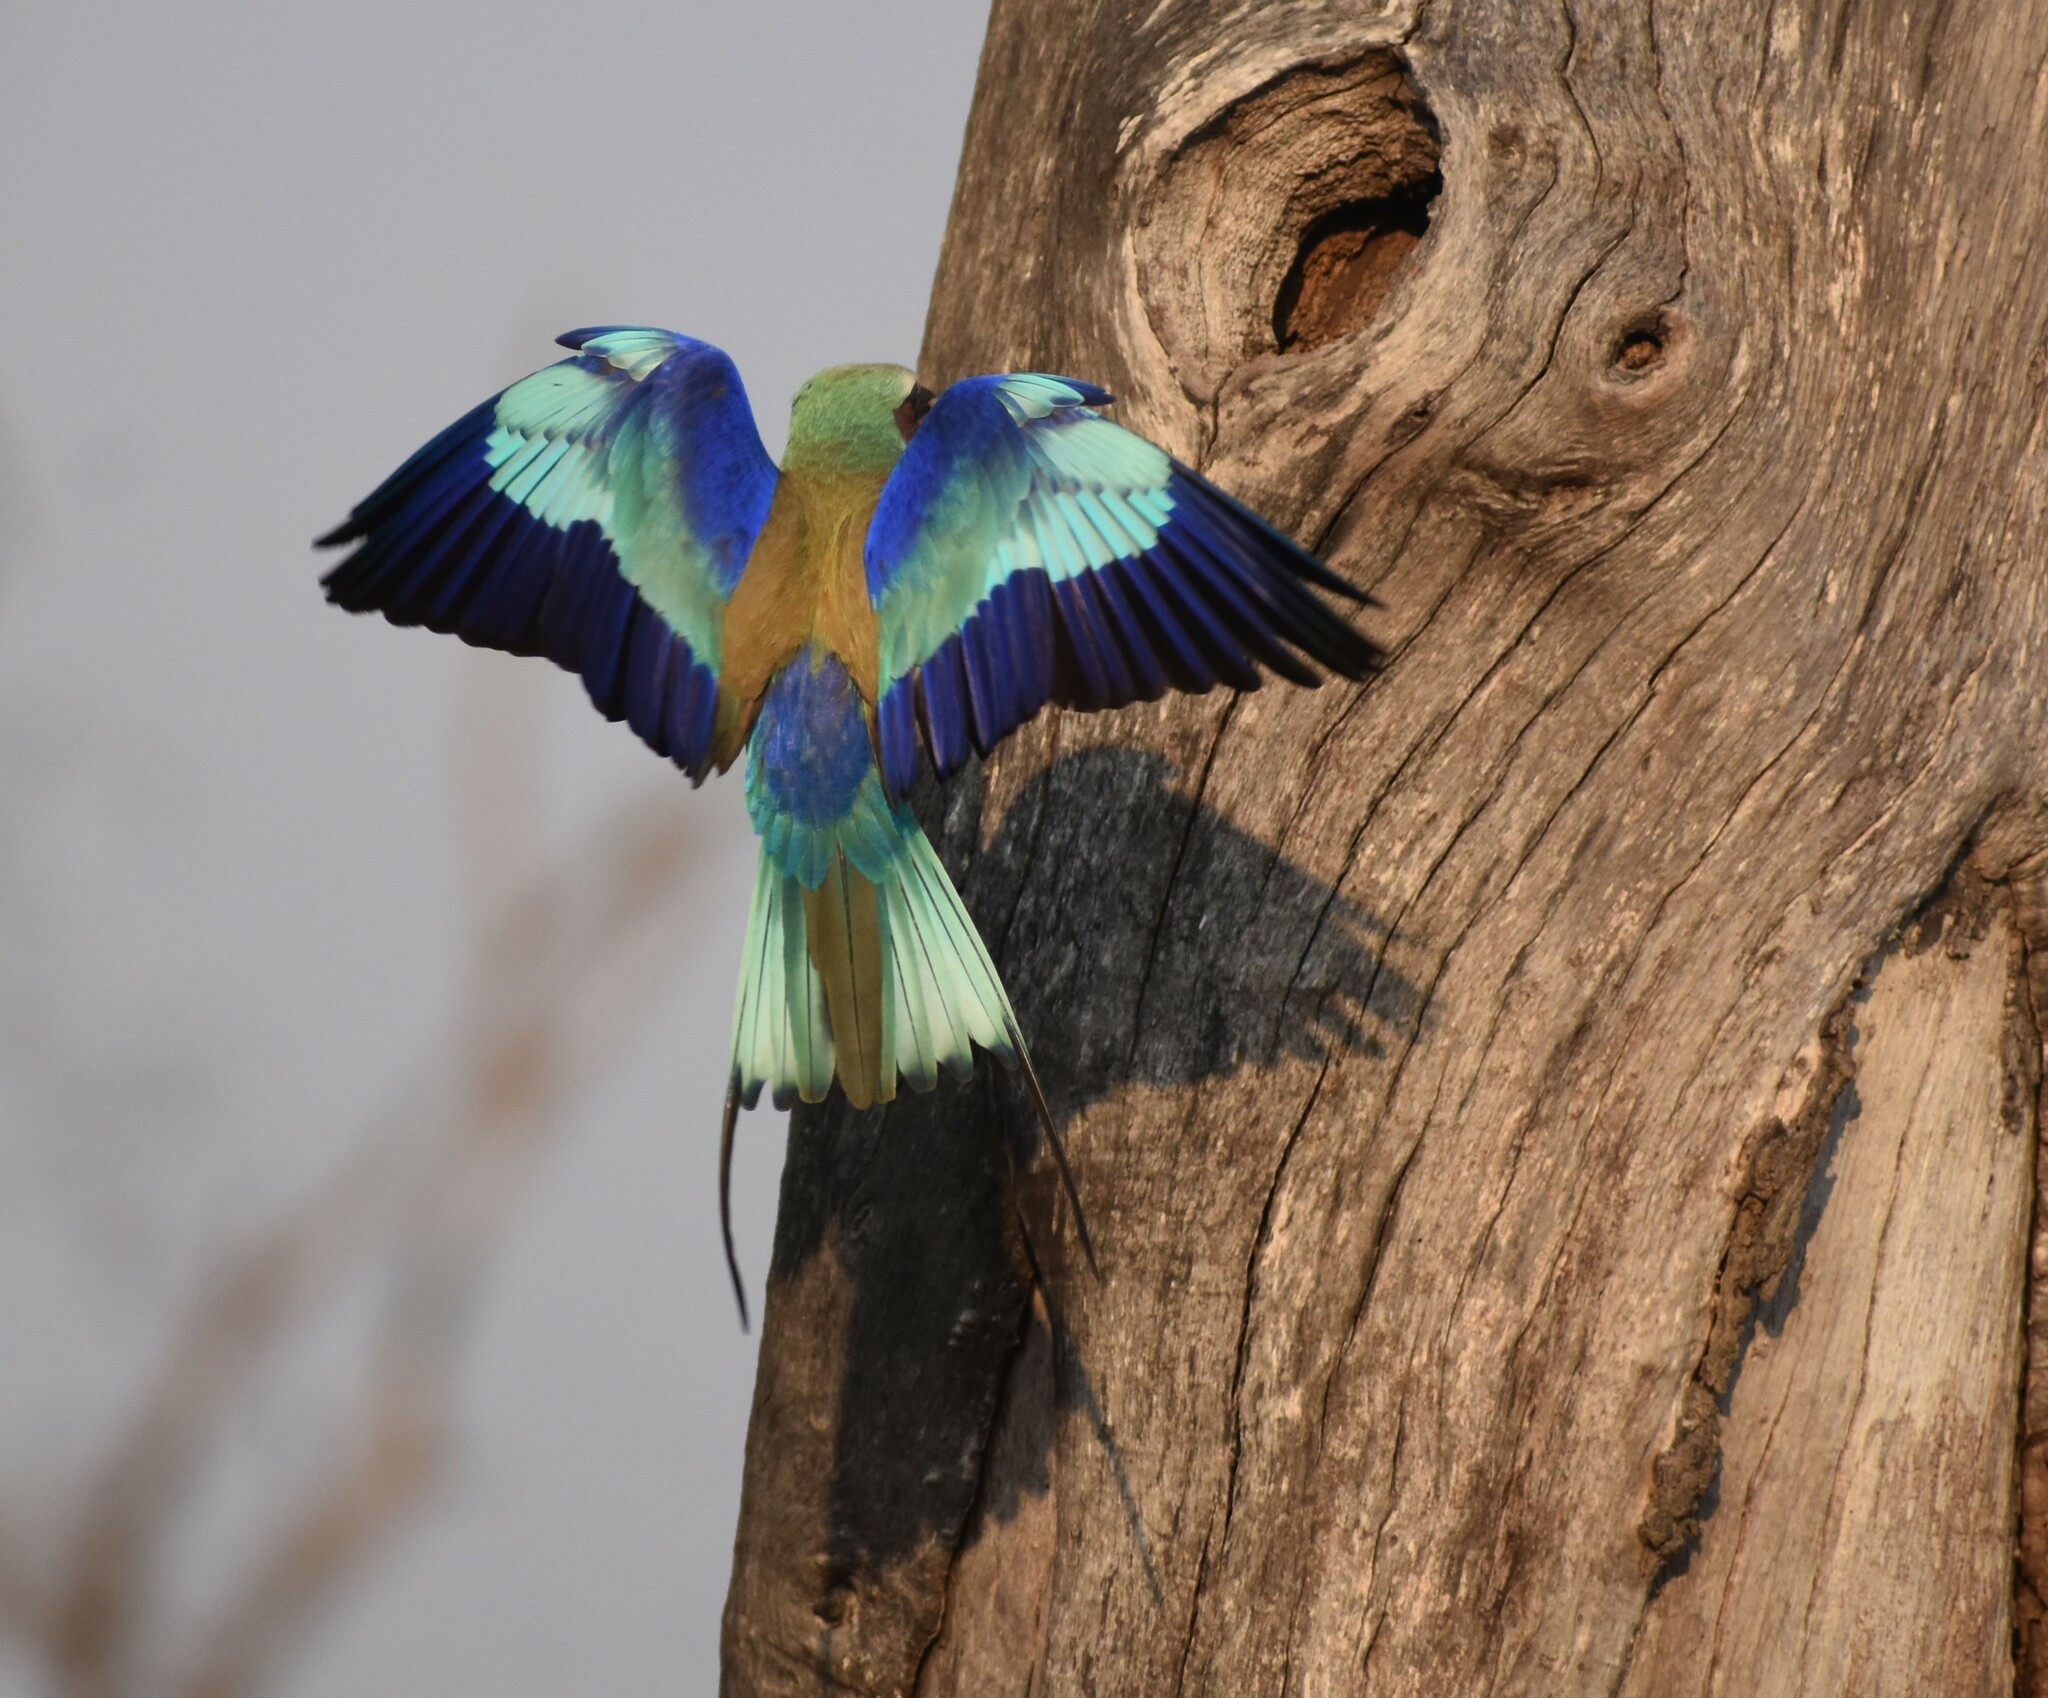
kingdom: Animalia
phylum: Chordata
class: Aves
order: Coraciiformes
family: Coraciidae
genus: Coracias
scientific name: Coracias caudatus
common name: Lilac-breasted roller
